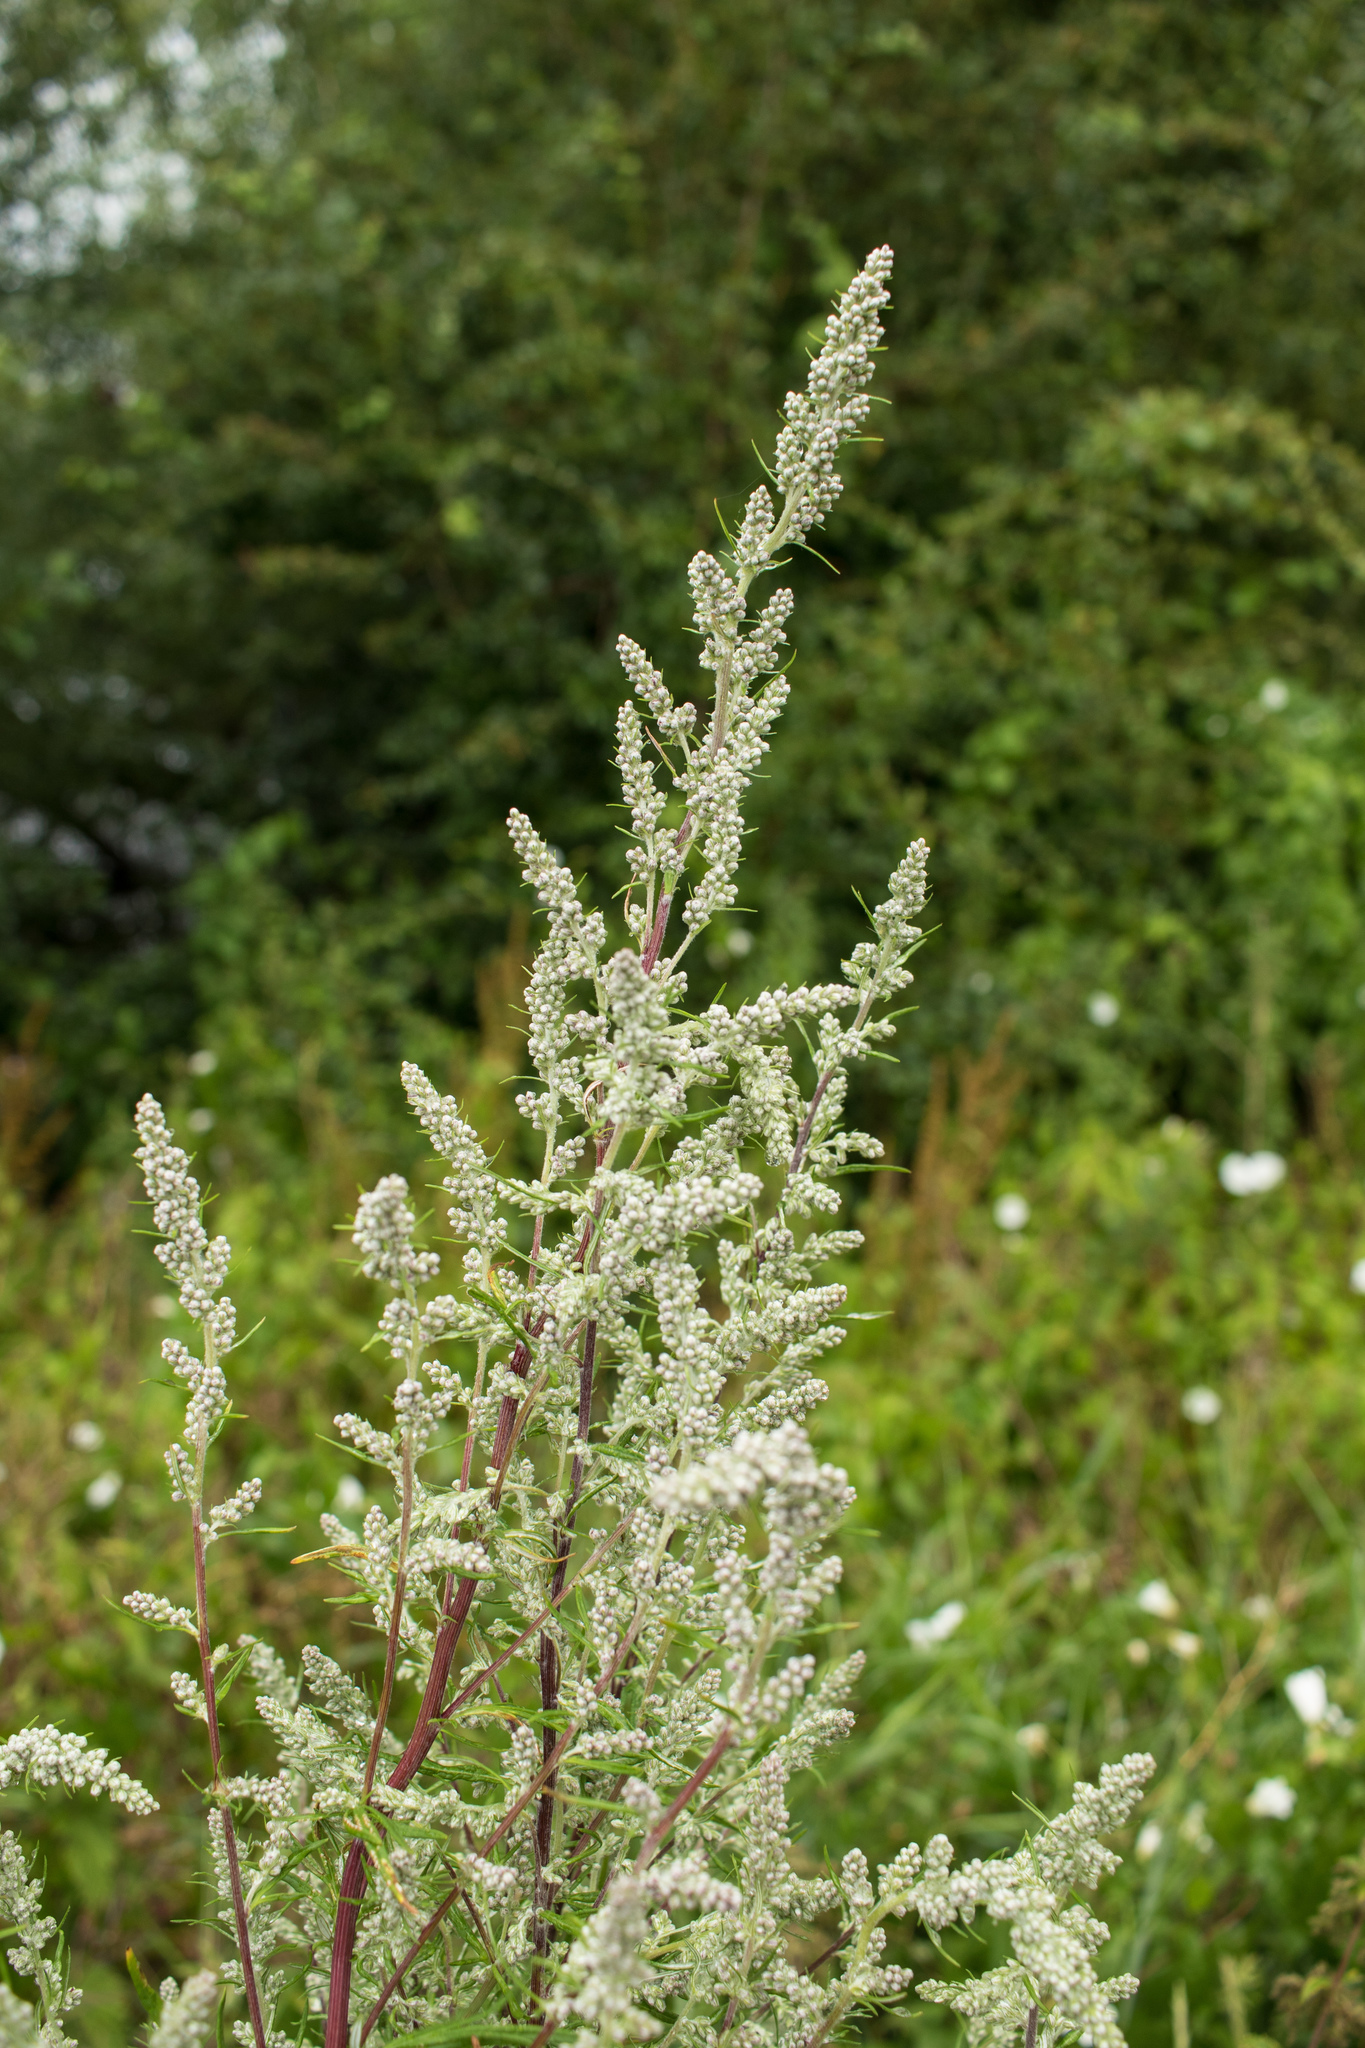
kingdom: Plantae
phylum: Tracheophyta
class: Magnoliopsida
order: Asterales
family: Asteraceae
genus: Artemisia
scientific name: Artemisia vulgaris
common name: Mugwort
